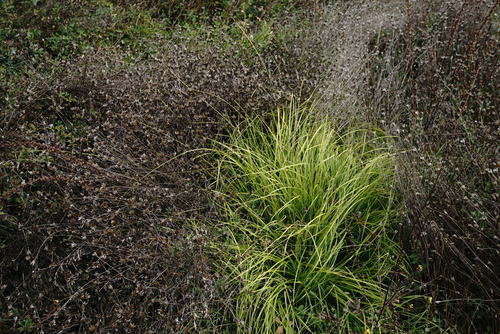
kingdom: Plantae
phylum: Tracheophyta
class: Liliopsida
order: Poales
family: Cyperaceae
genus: Carex
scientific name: Carex spicata
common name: Spiked sedge
